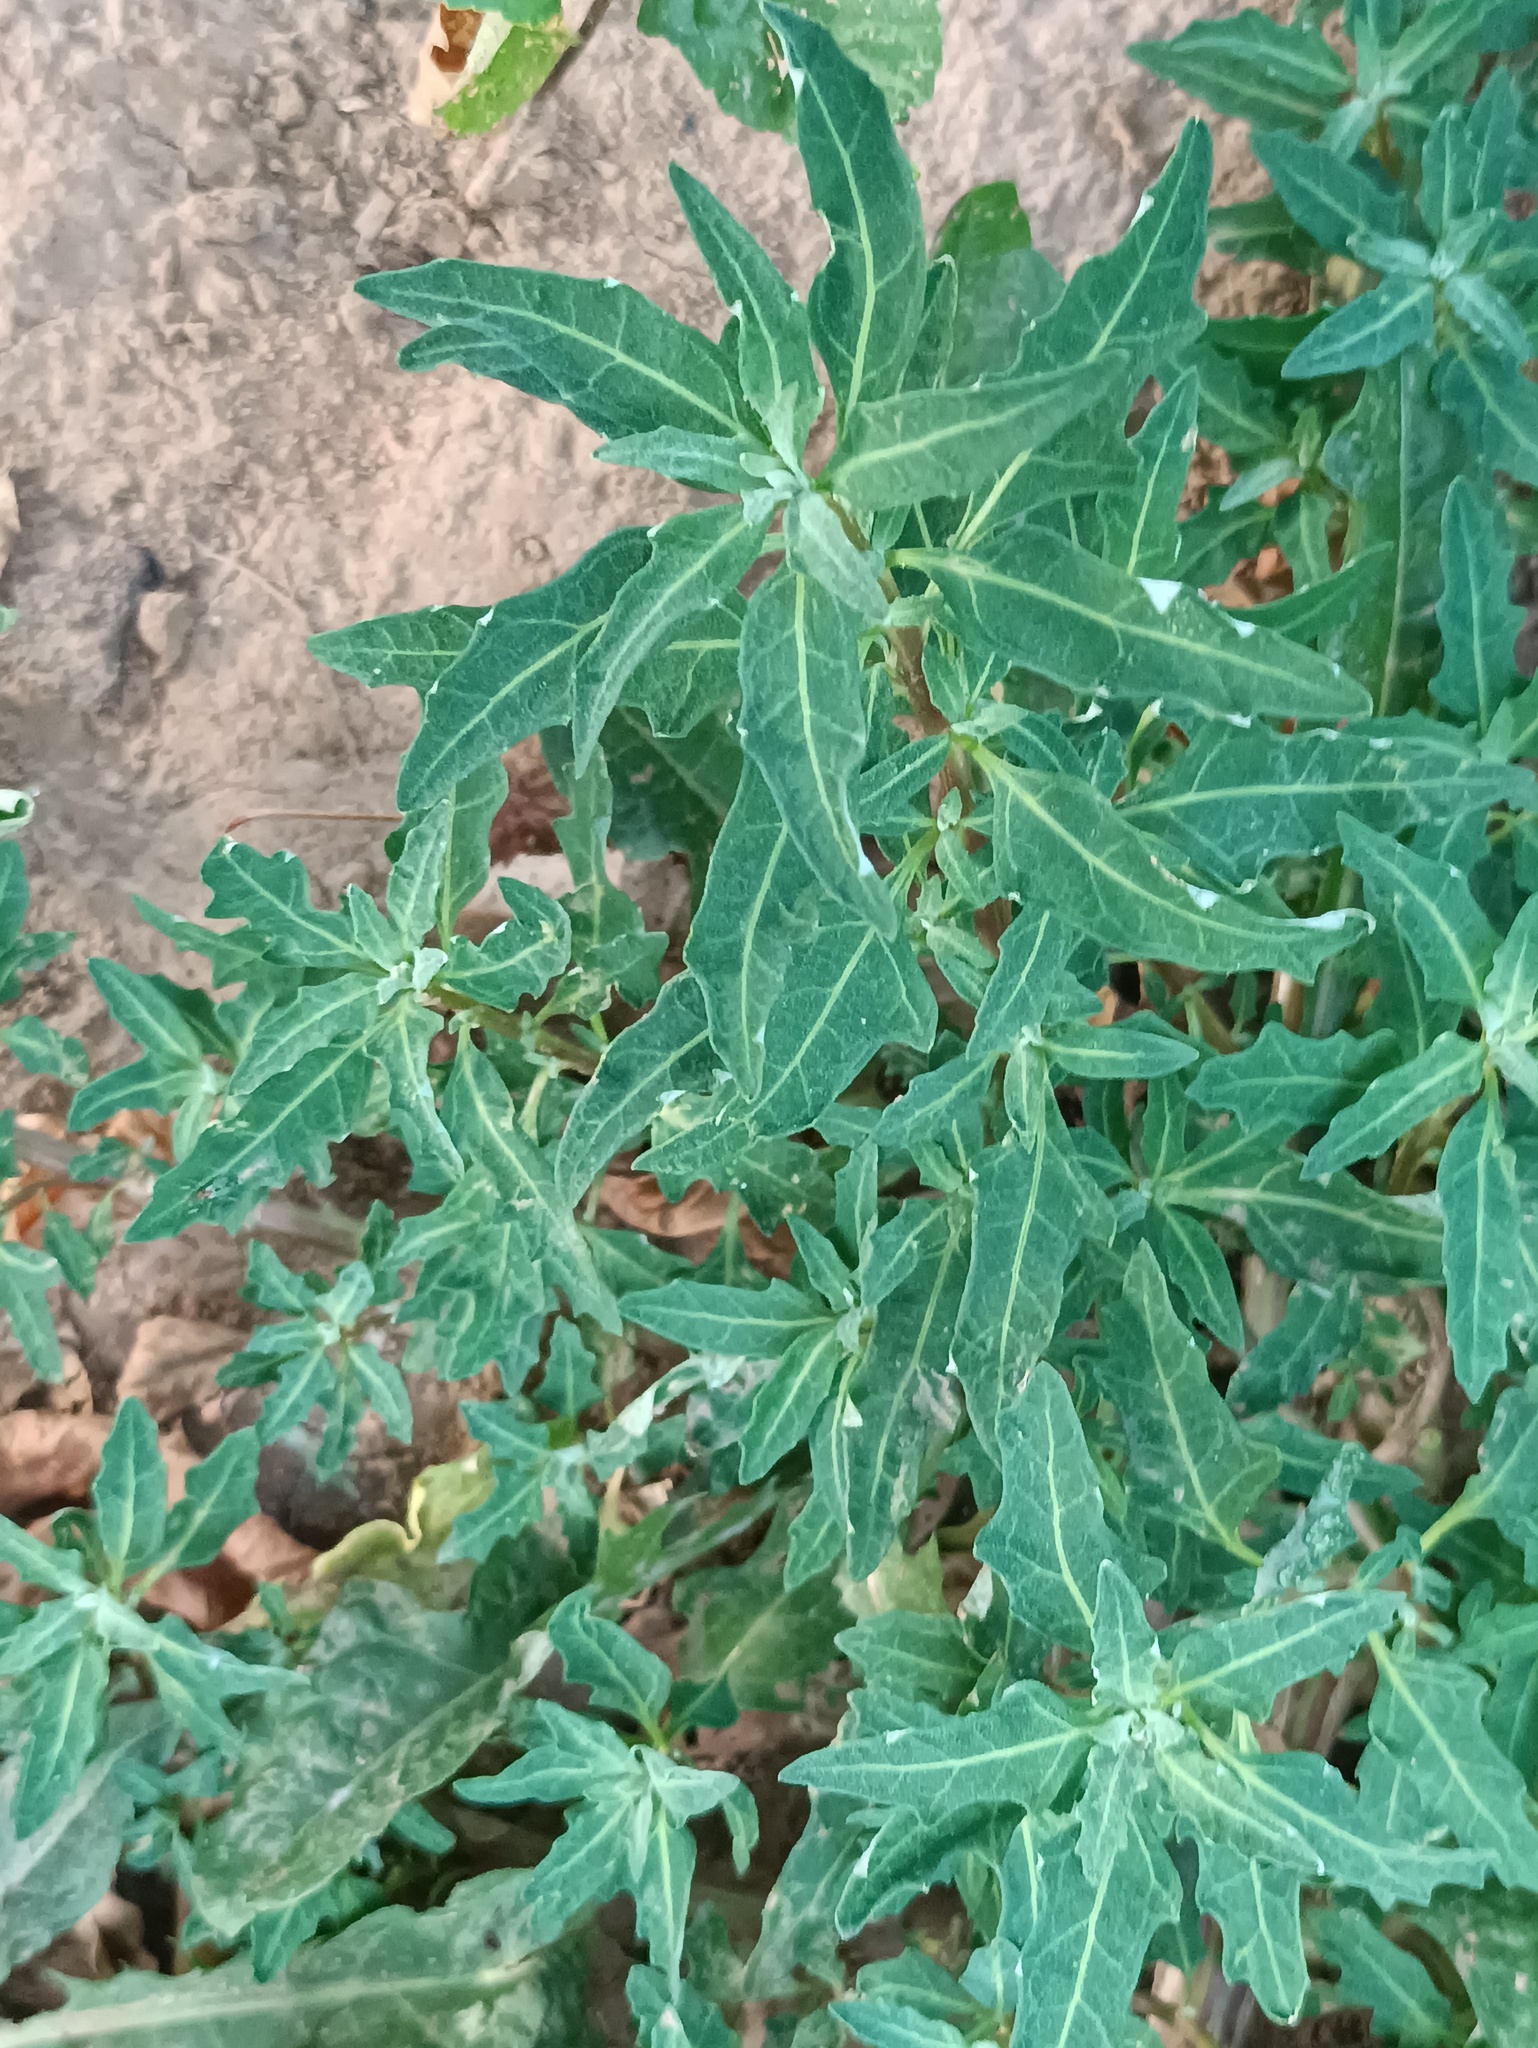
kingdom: Plantae
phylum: Tracheophyta
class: Magnoliopsida
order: Caryophyllales
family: Amaranthaceae
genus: Oxybasis
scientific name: Oxybasis glauca
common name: Glaucous goosefoot
